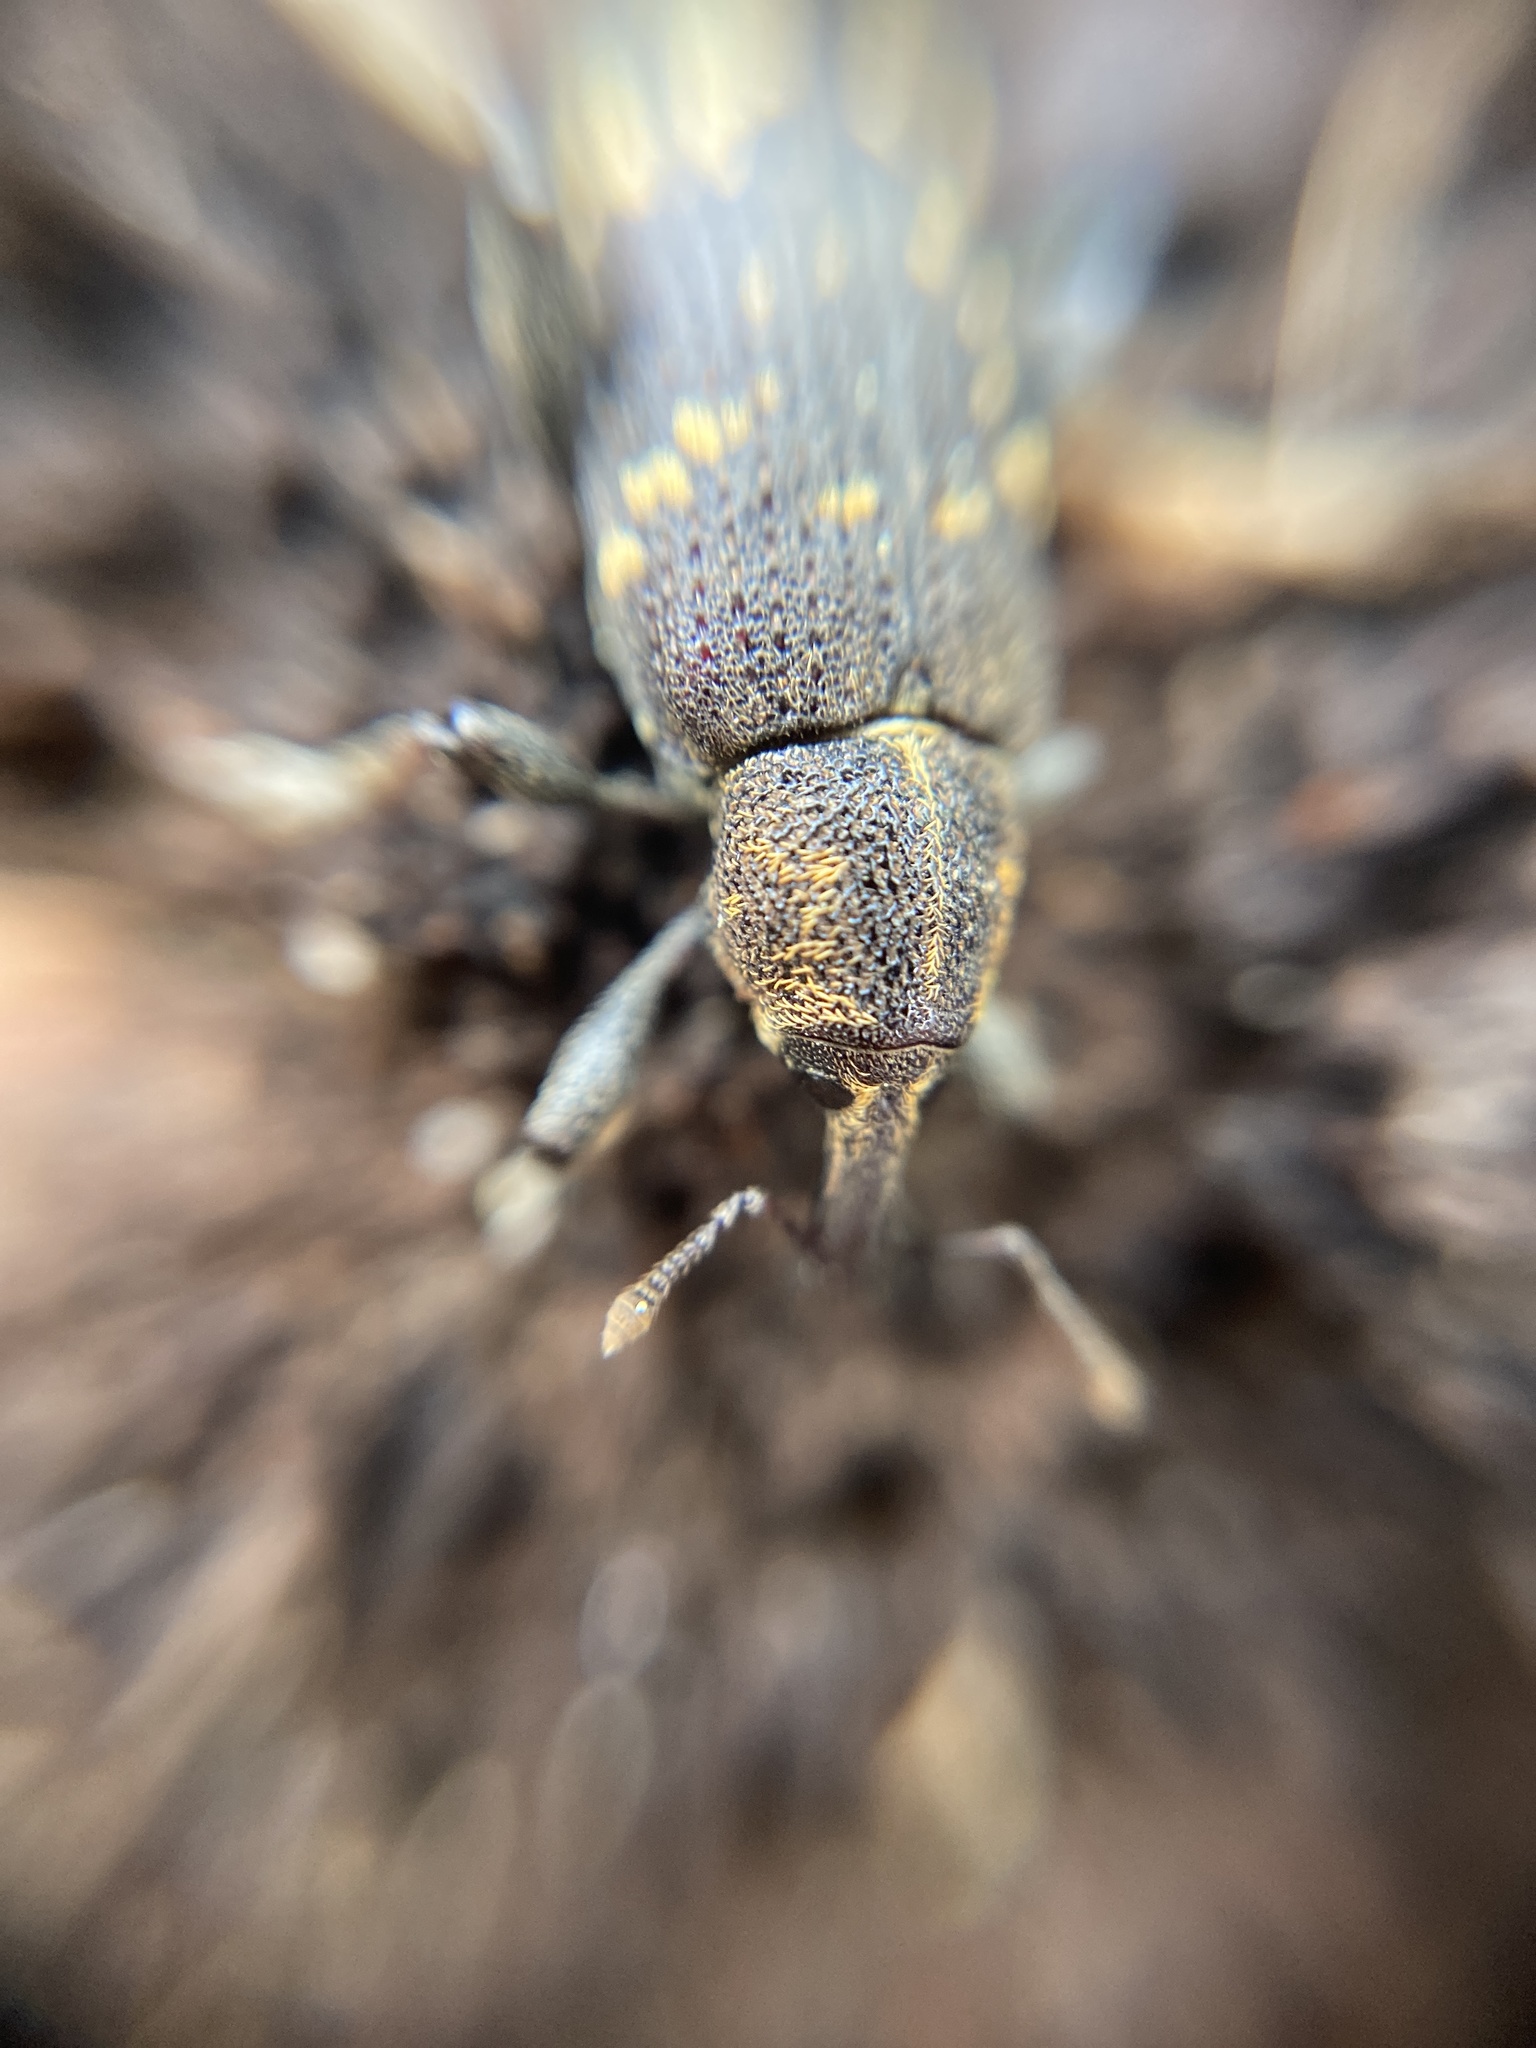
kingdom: Animalia
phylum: Arthropoda
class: Insecta
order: Coleoptera
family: Curculionidae
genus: Hylobius
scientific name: Hylobius abietis
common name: Large pine weevil
